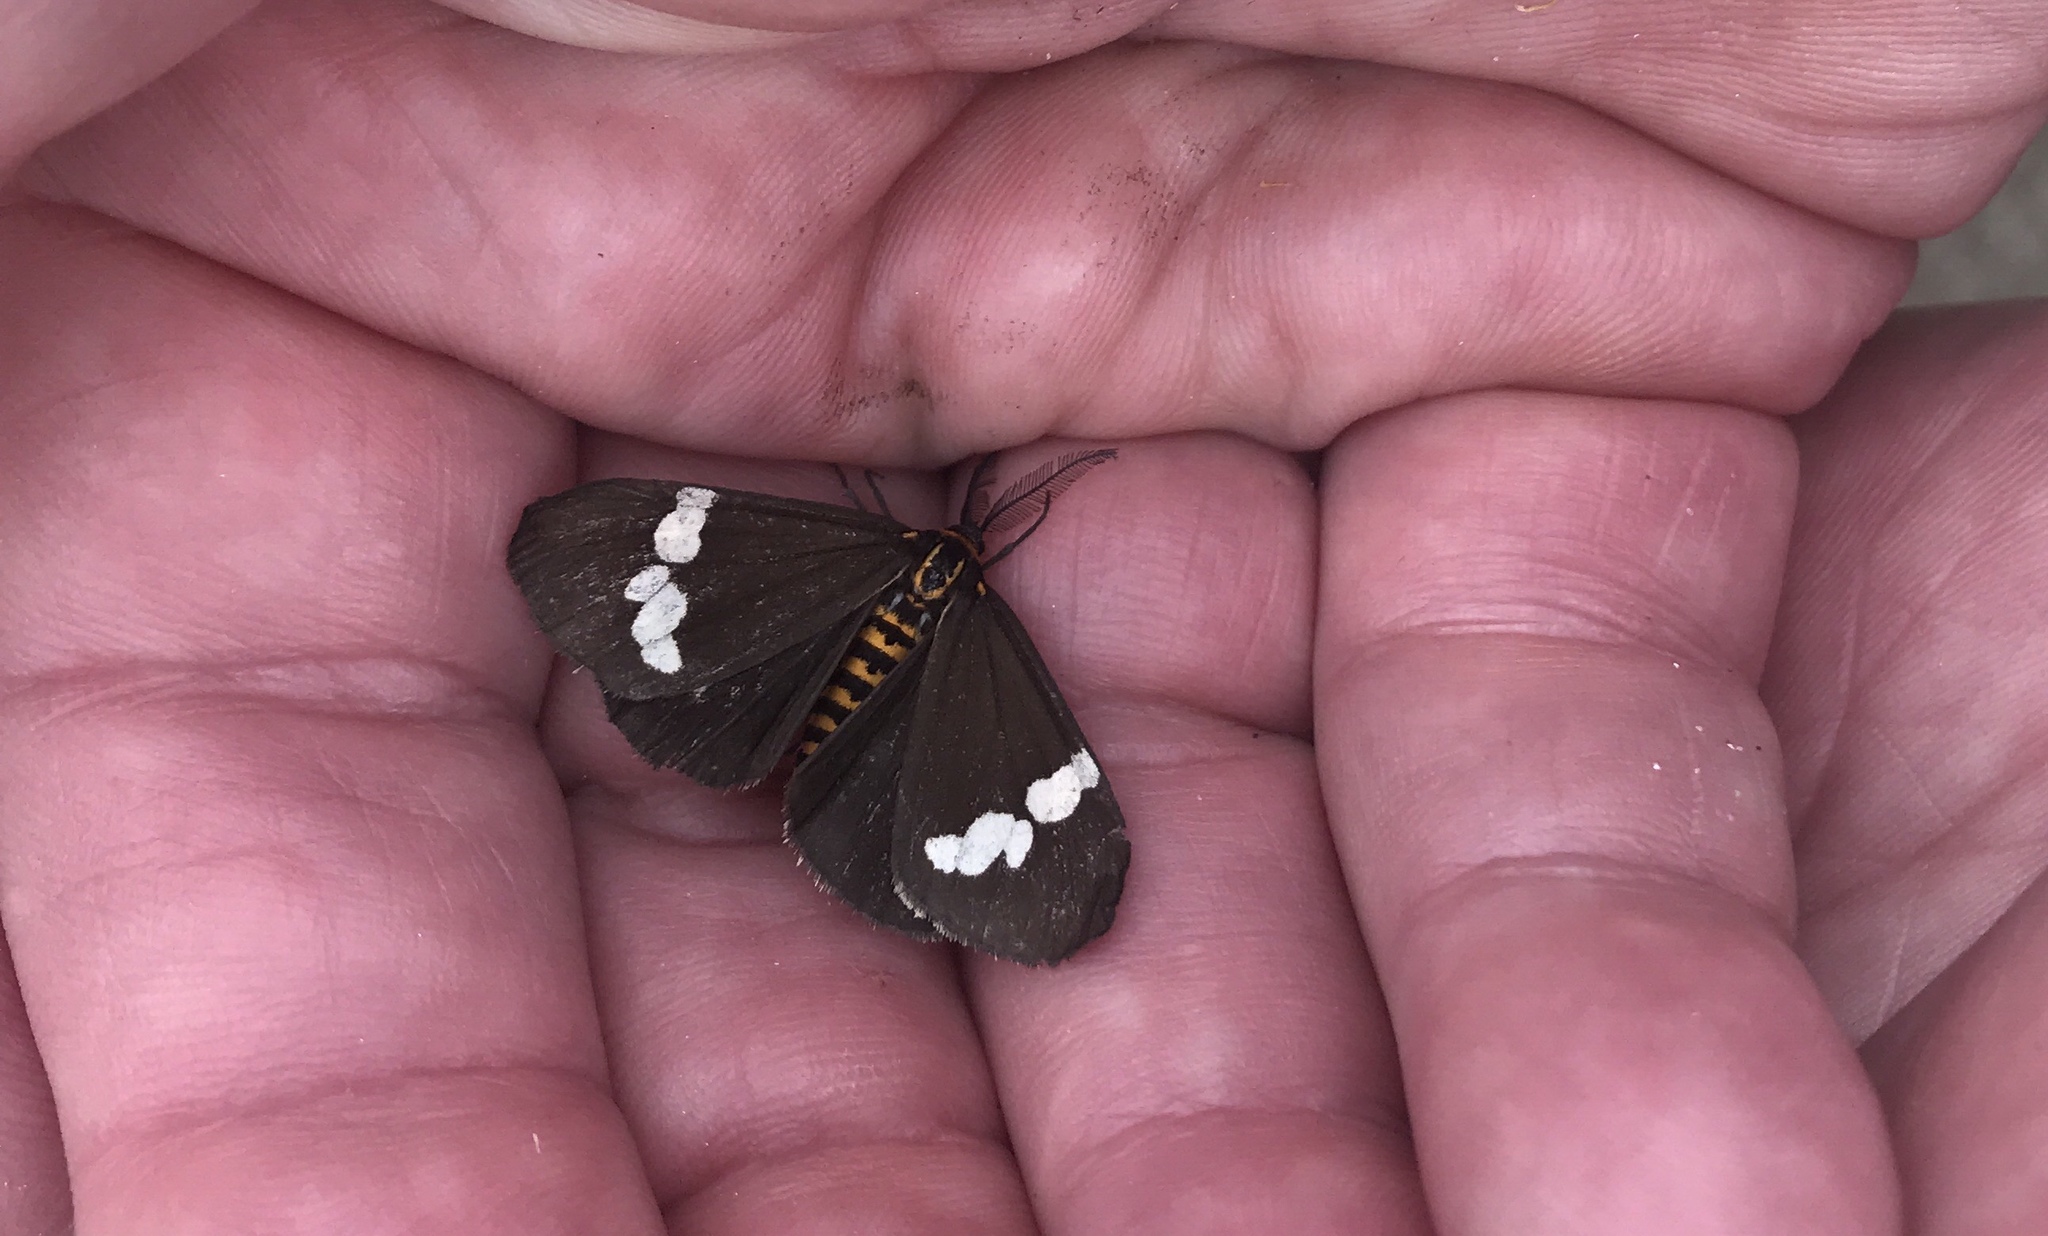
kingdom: Animalia
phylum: Arthropoda
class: Insecta
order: Lepidoptera
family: Erebidae
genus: Nyctemera
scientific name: Nyctemera annulatum
